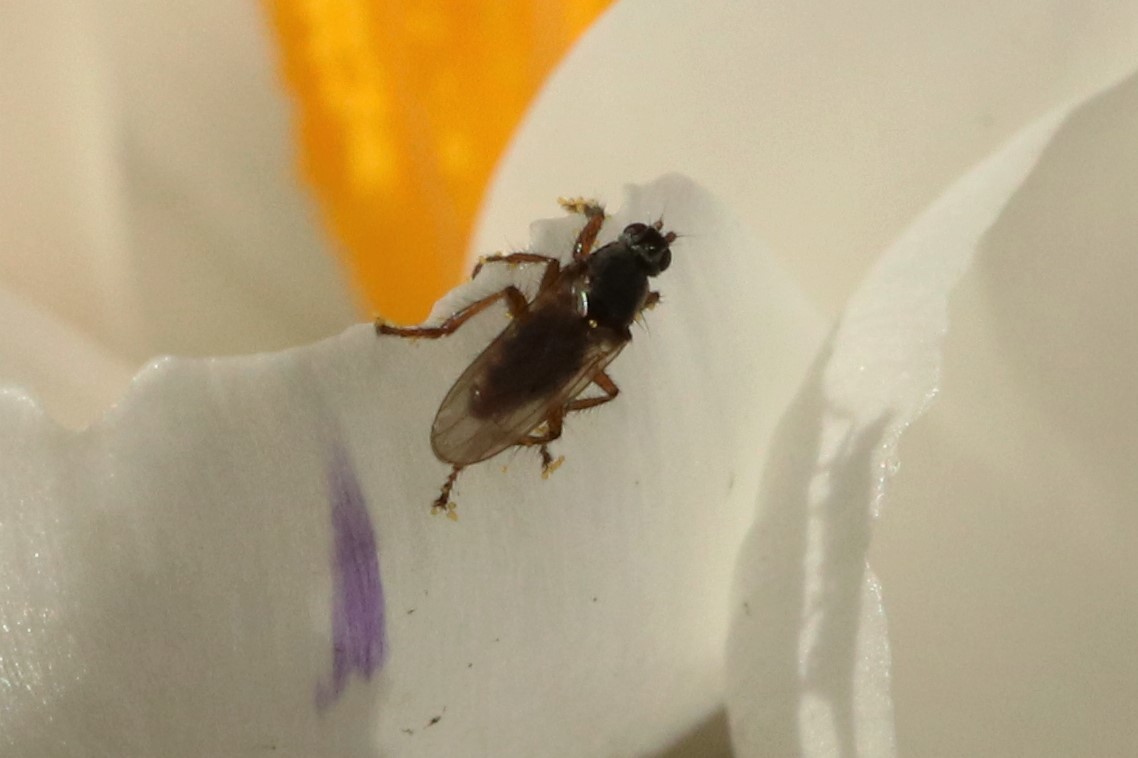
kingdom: Animalia
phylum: Arthropoda
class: Insecta
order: Diptera
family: Coelopidae
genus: Coelopa
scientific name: Coelopa frigida
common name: Kelp fly
